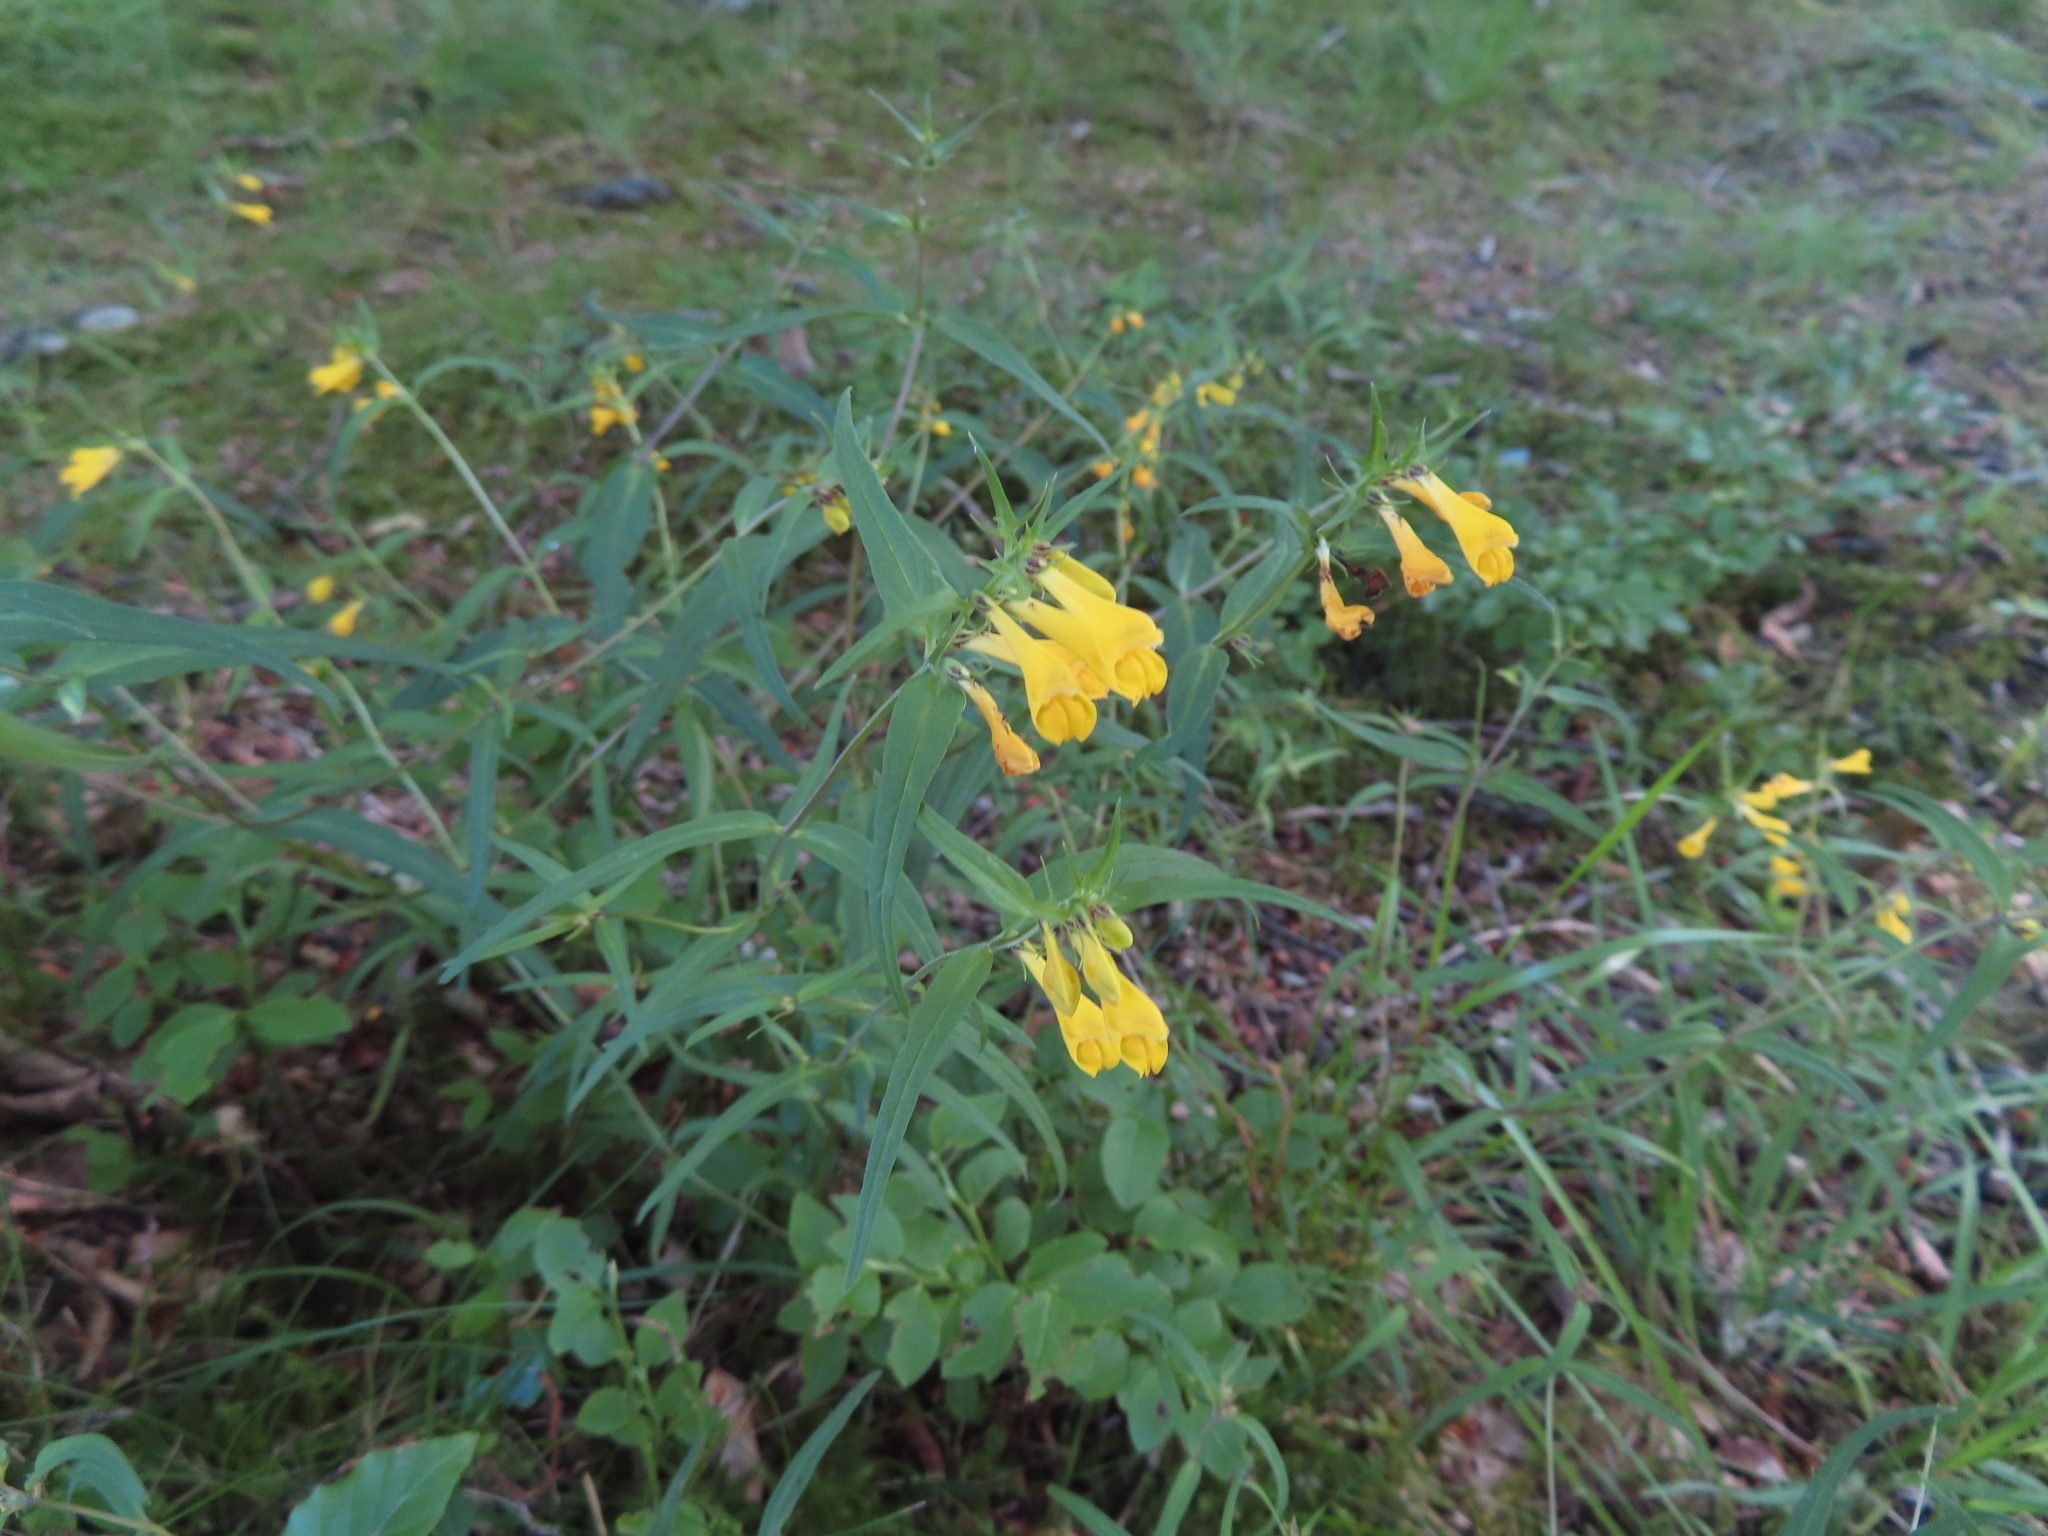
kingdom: Plantae
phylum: Tracheophyta
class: Magnoliopsida
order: Lamiales
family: Orobanchaceae
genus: Melampyrum
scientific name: Melampyrum pratense
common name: Common cow-wheat
